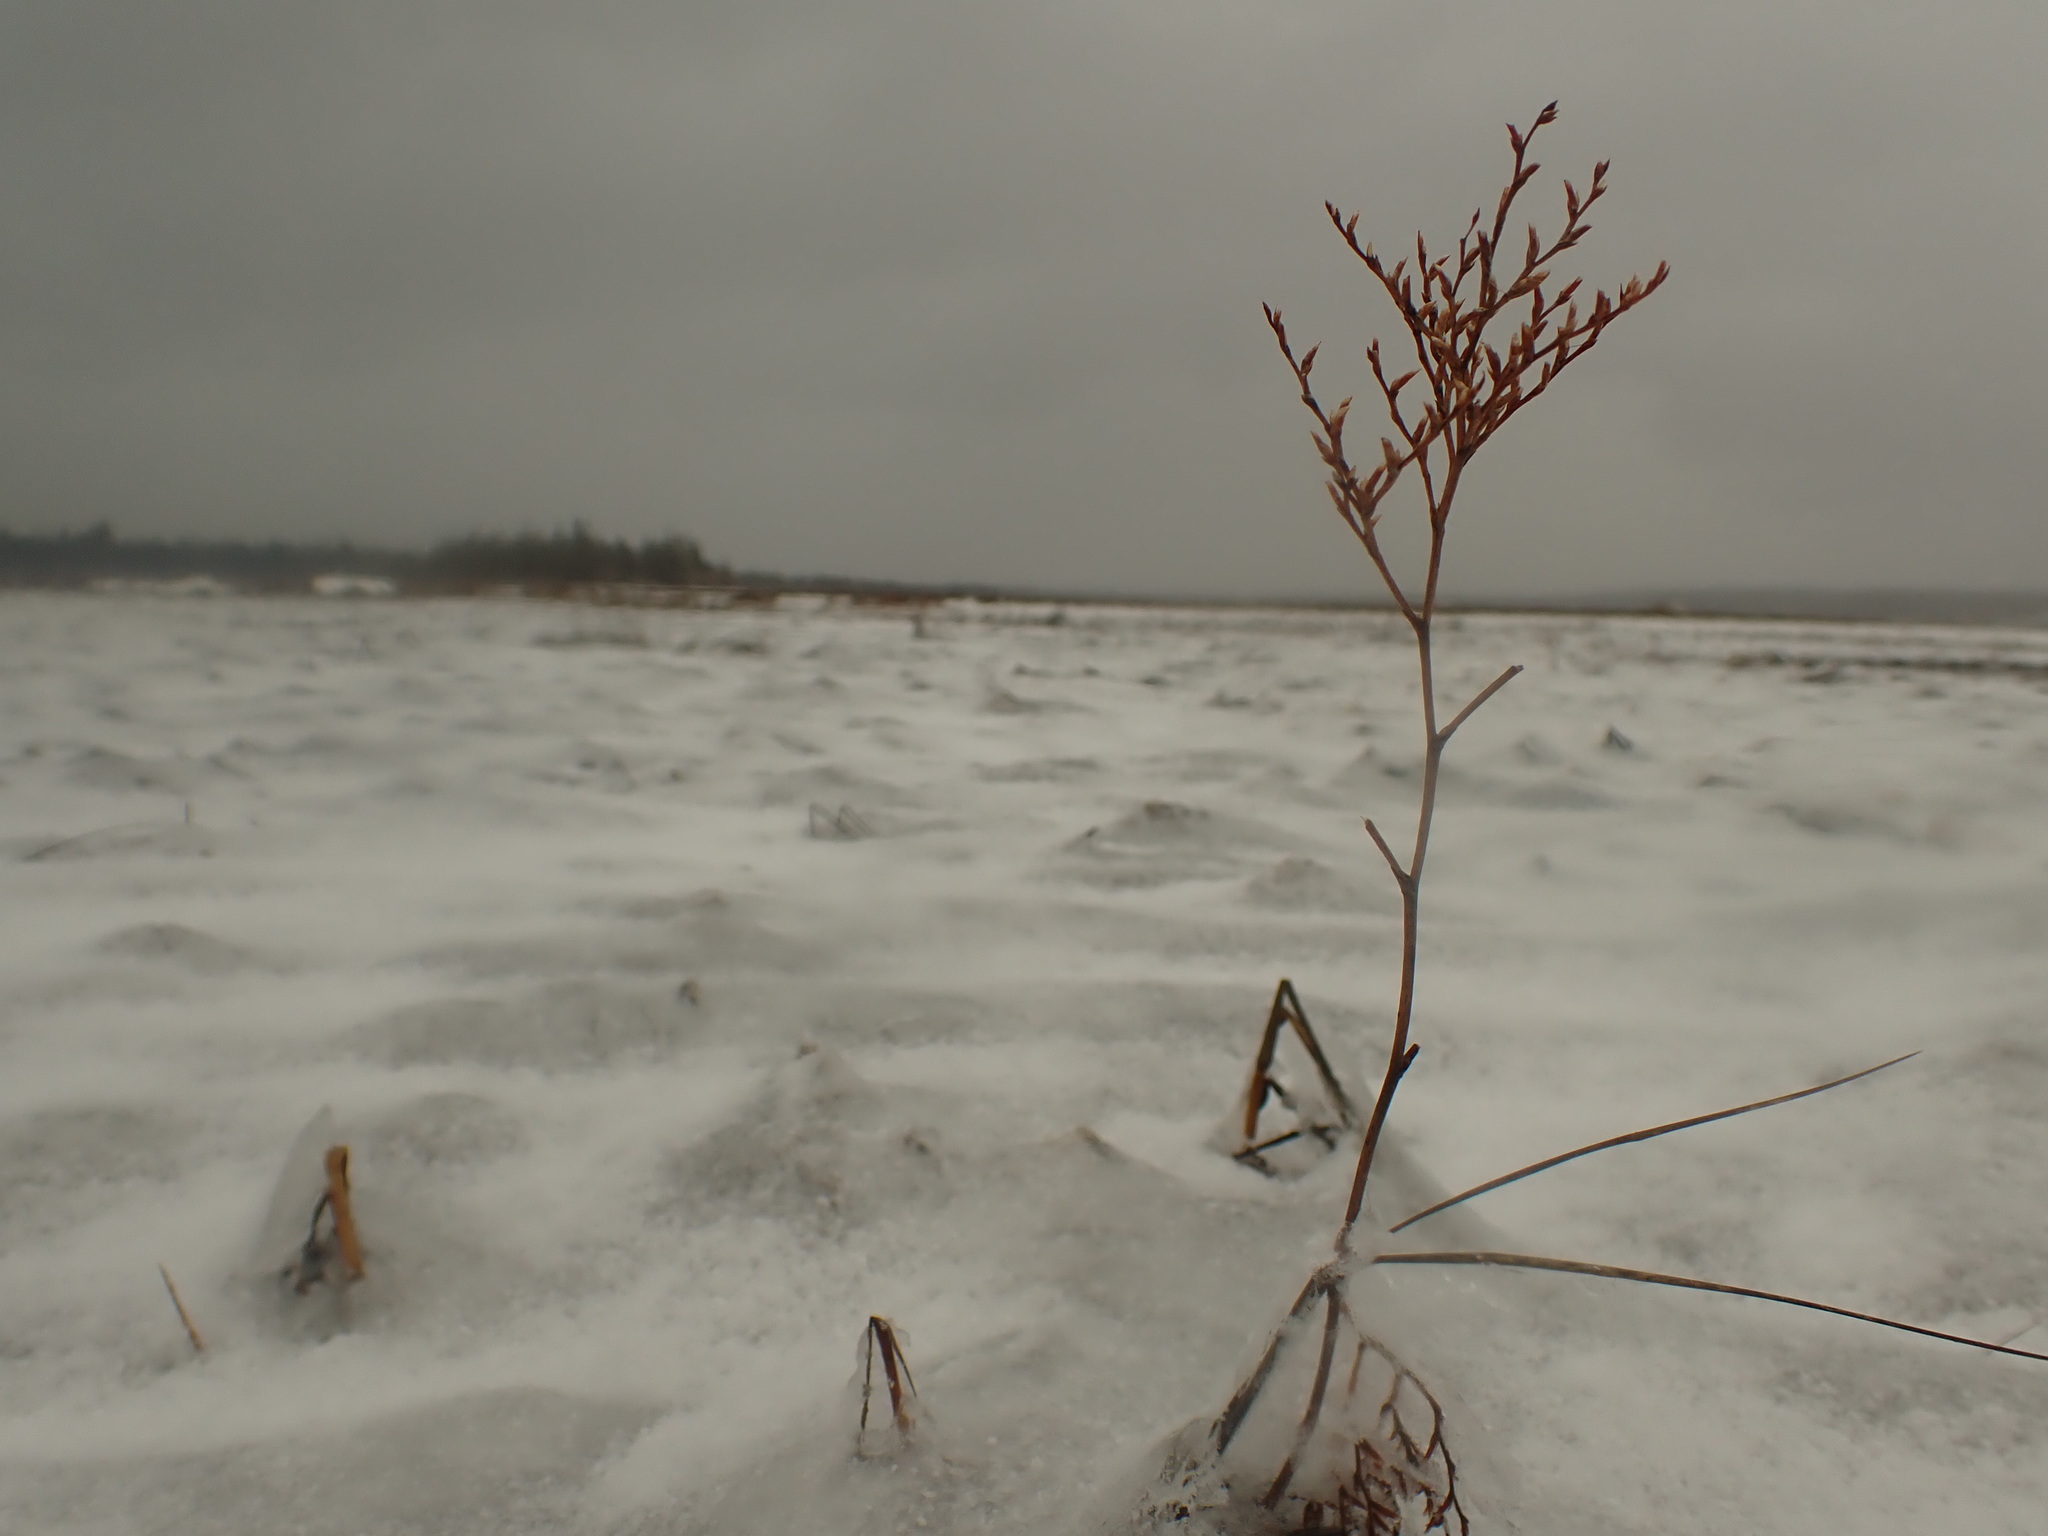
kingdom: Plantae
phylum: Tracheophyta
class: Magnoliopsida
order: Caryophyllales
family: Plumbaginaceae
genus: Limonium
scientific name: Limonium carolinianum
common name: Carolina sea lavender
